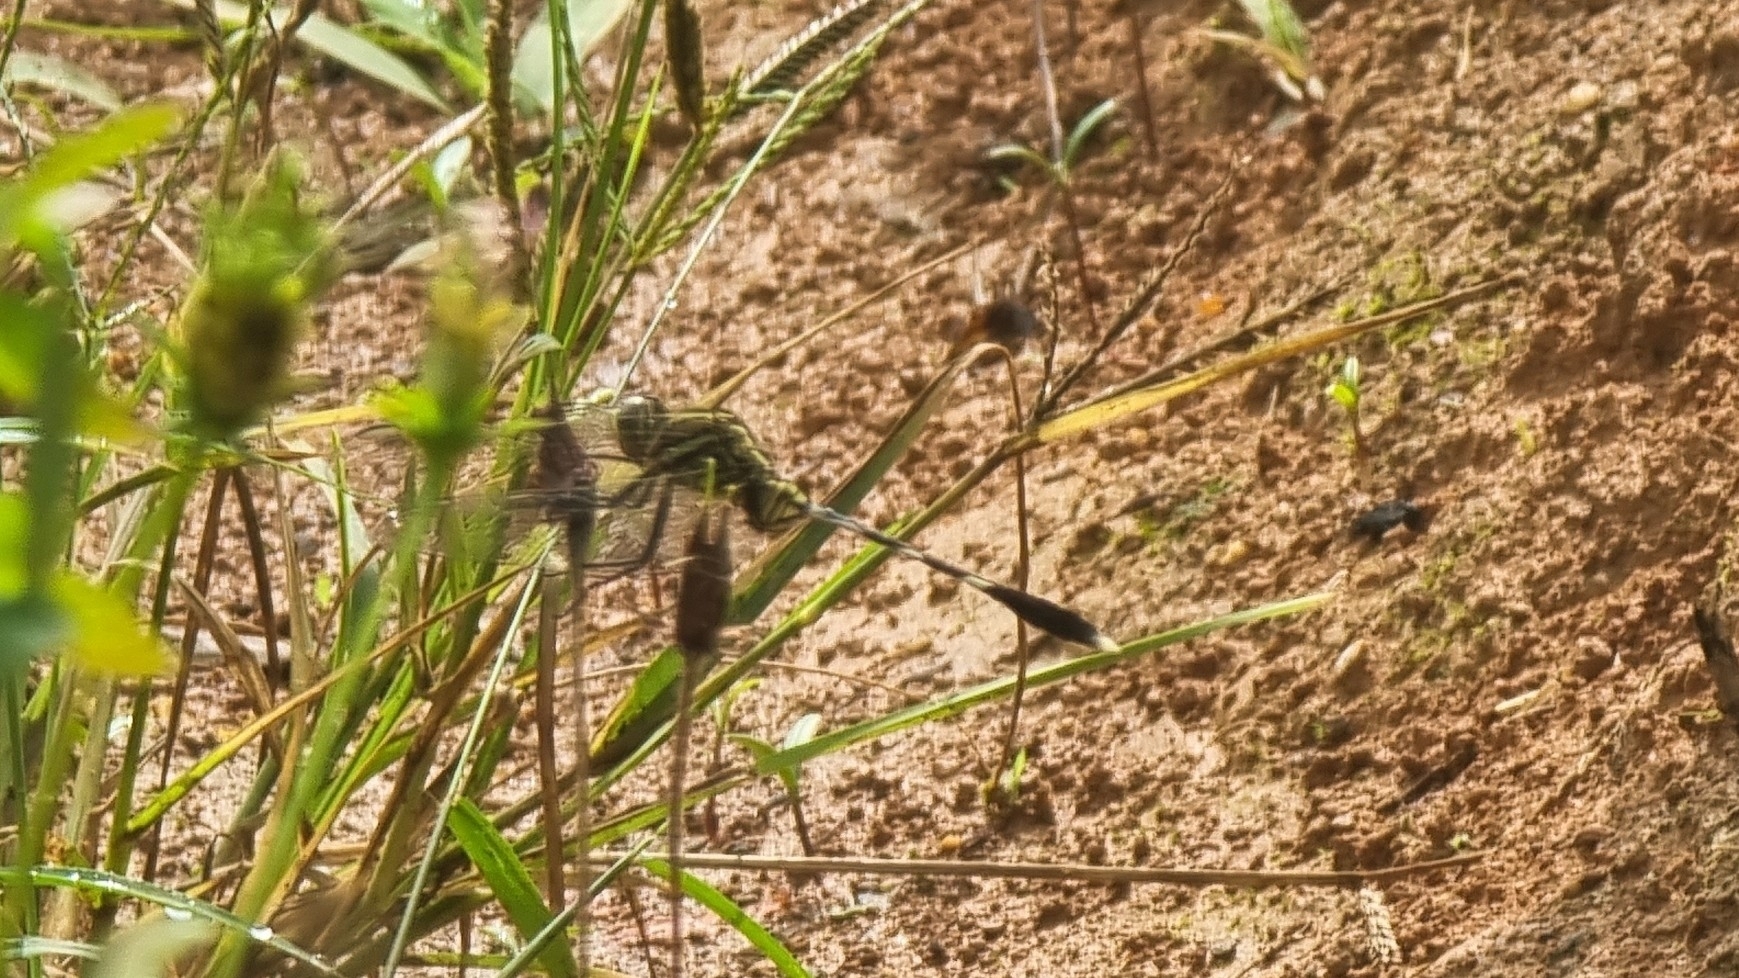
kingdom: Animalia
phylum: Arthropoda
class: Insecta
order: Odonata
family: Libellulidae
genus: Orthetrum
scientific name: Orthetrum sabina
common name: Slender skimmer
